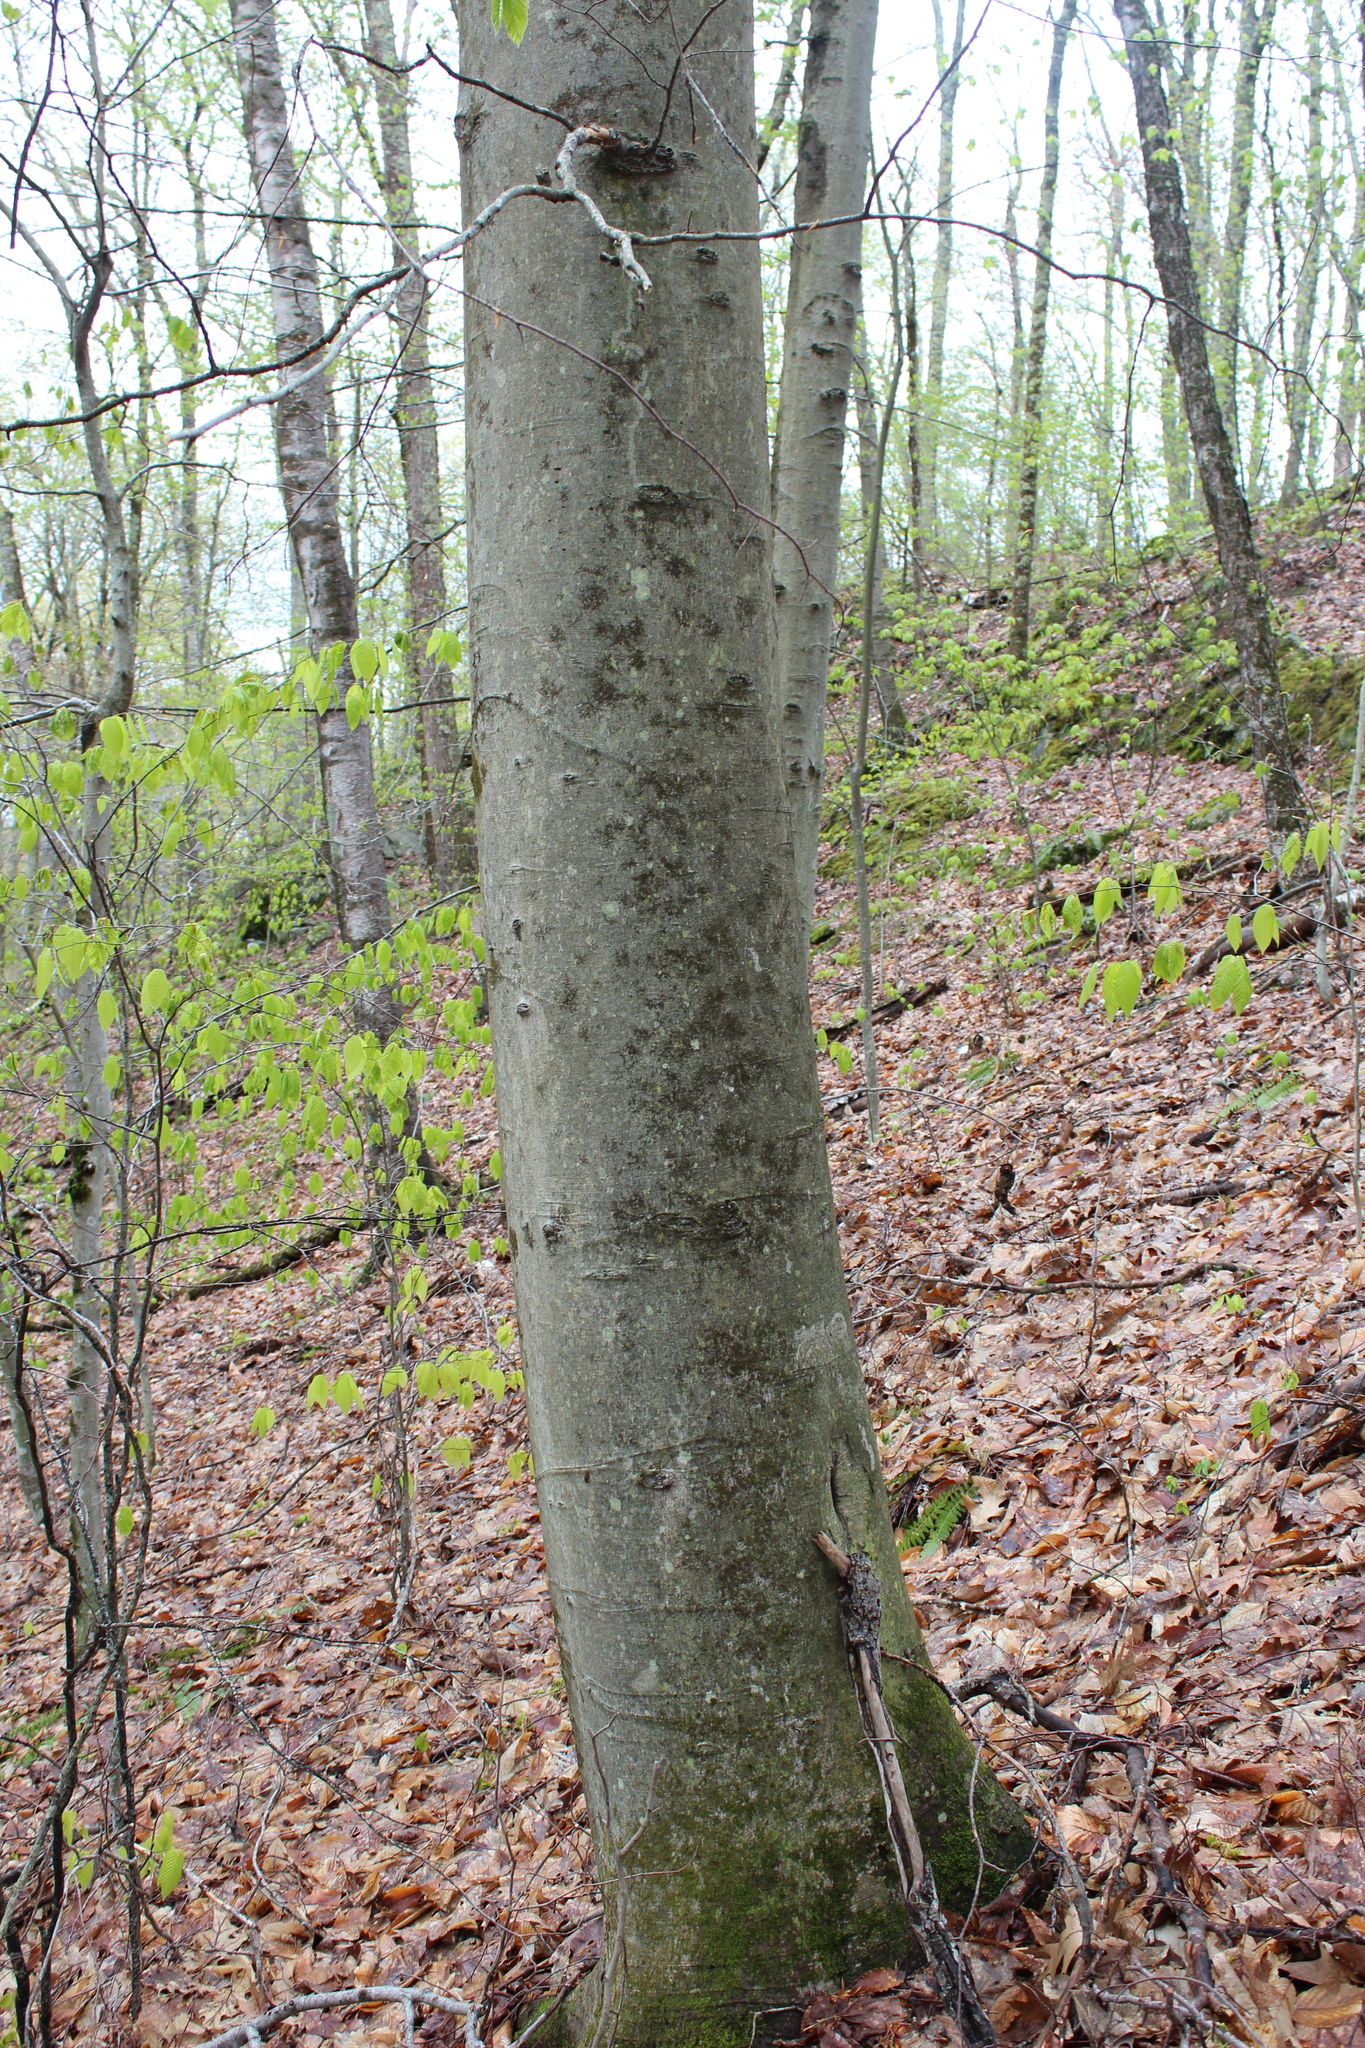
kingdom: Plantae
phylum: Tracheophyta
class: Magnoliopsida
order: Fagales
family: Fagaceae
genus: Fagus
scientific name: Fagus grandifolia
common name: American beech
